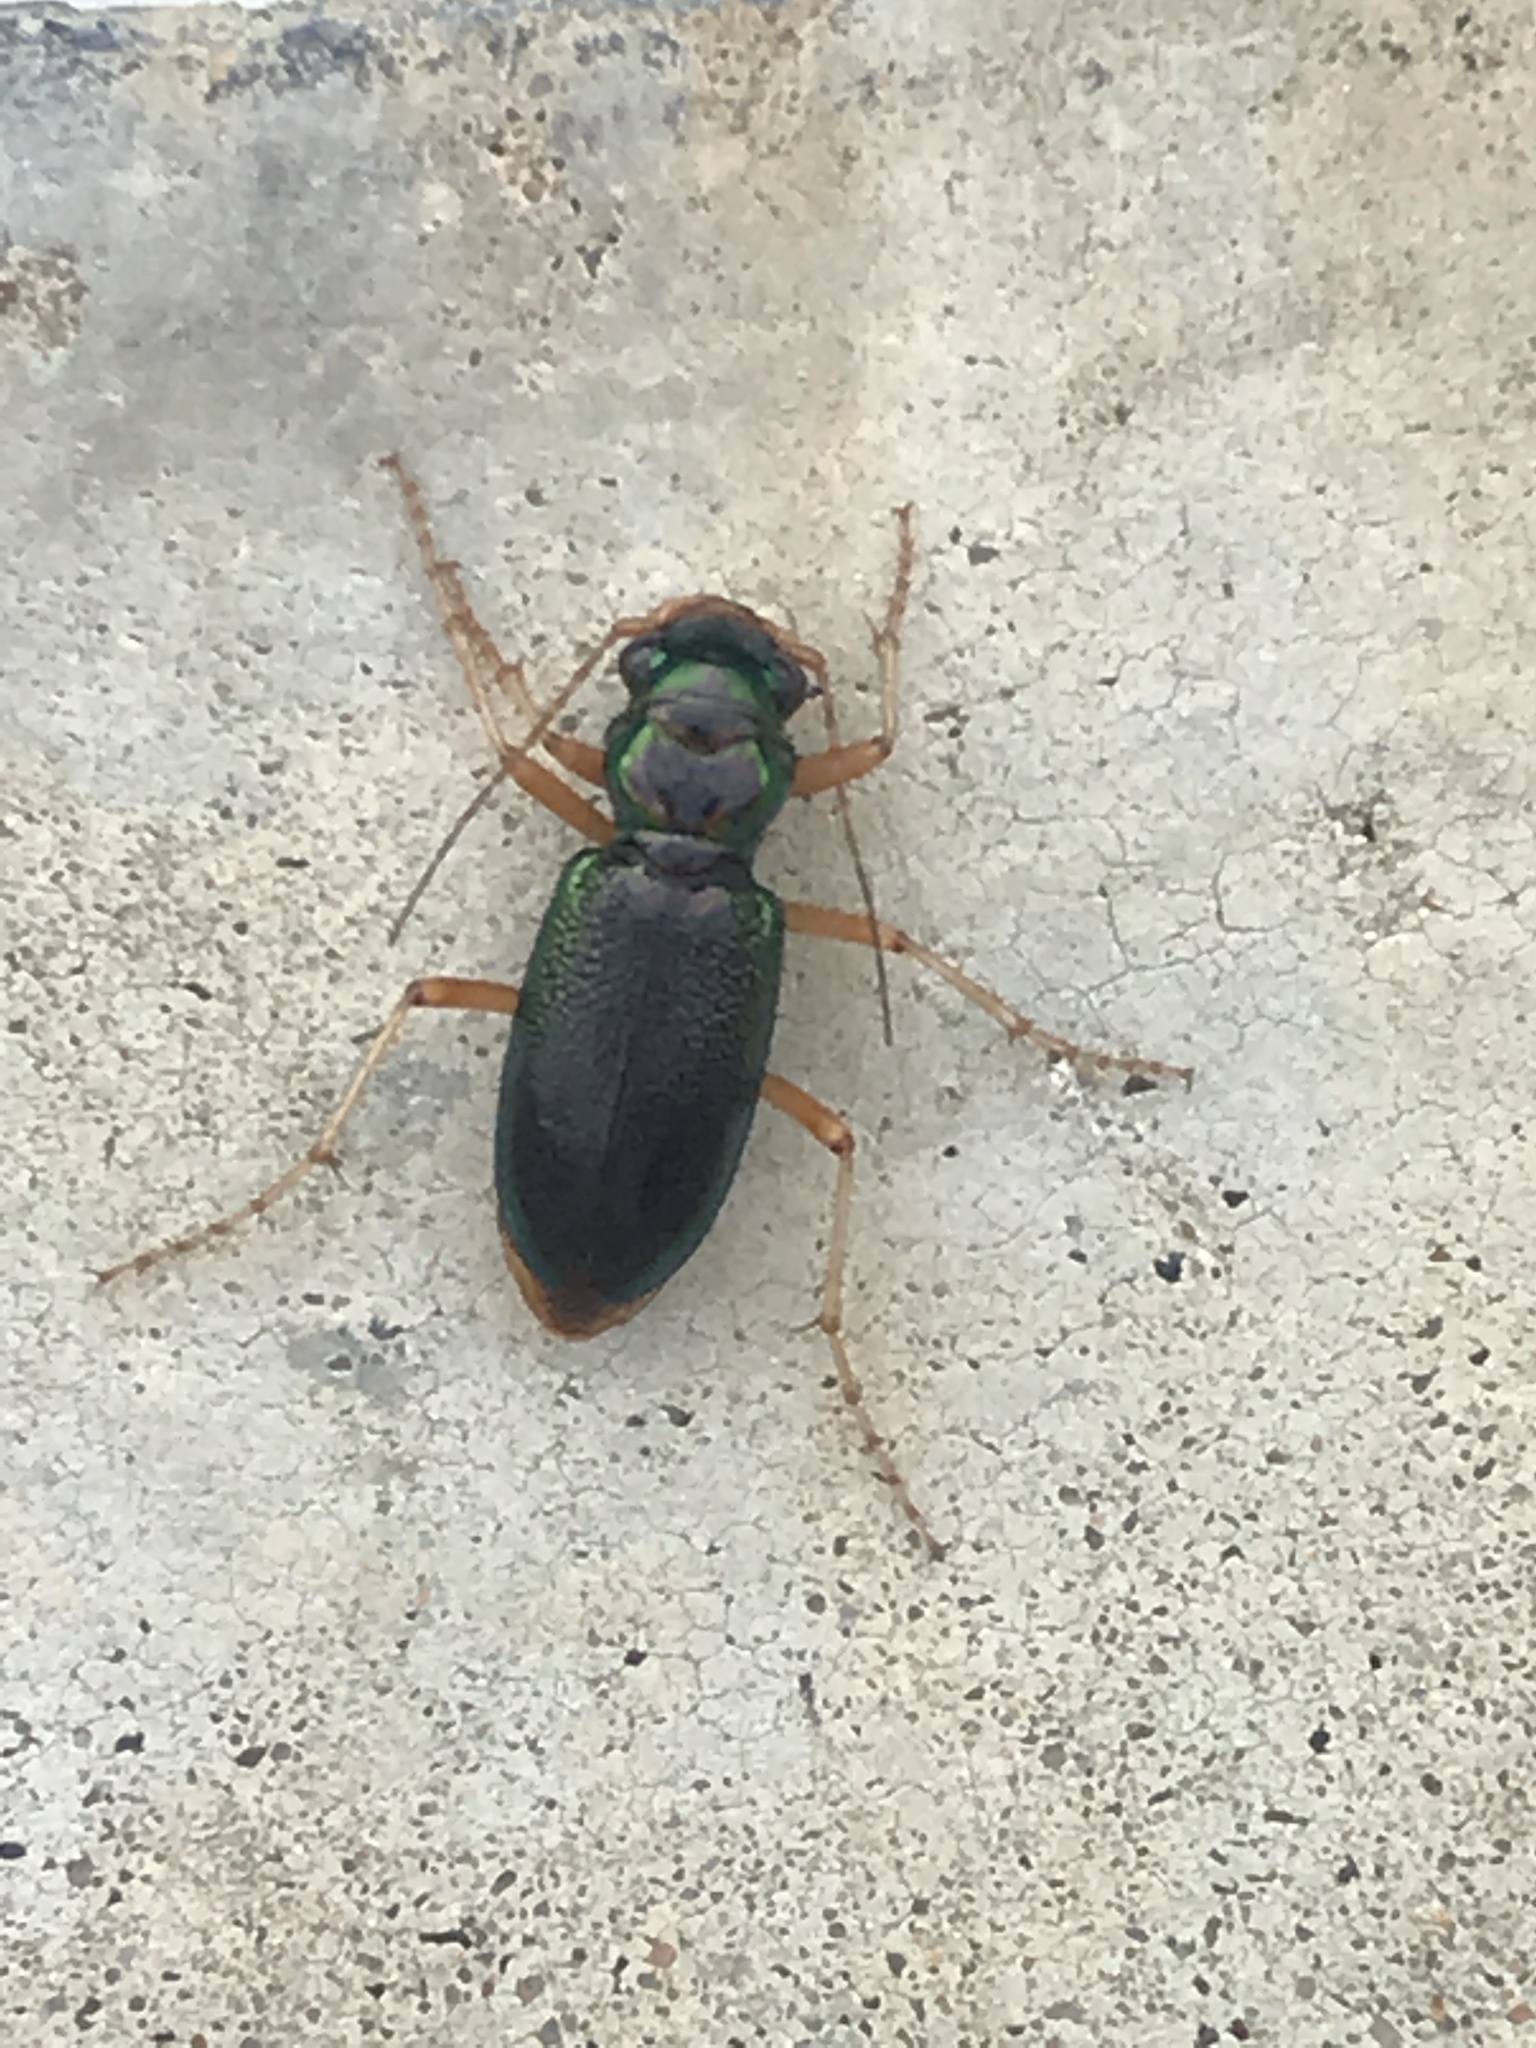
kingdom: Animalia
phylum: Arthropoda
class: Insecta
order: Coleoptera
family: Carabidae
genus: Tetracha
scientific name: Tetracha virginica
